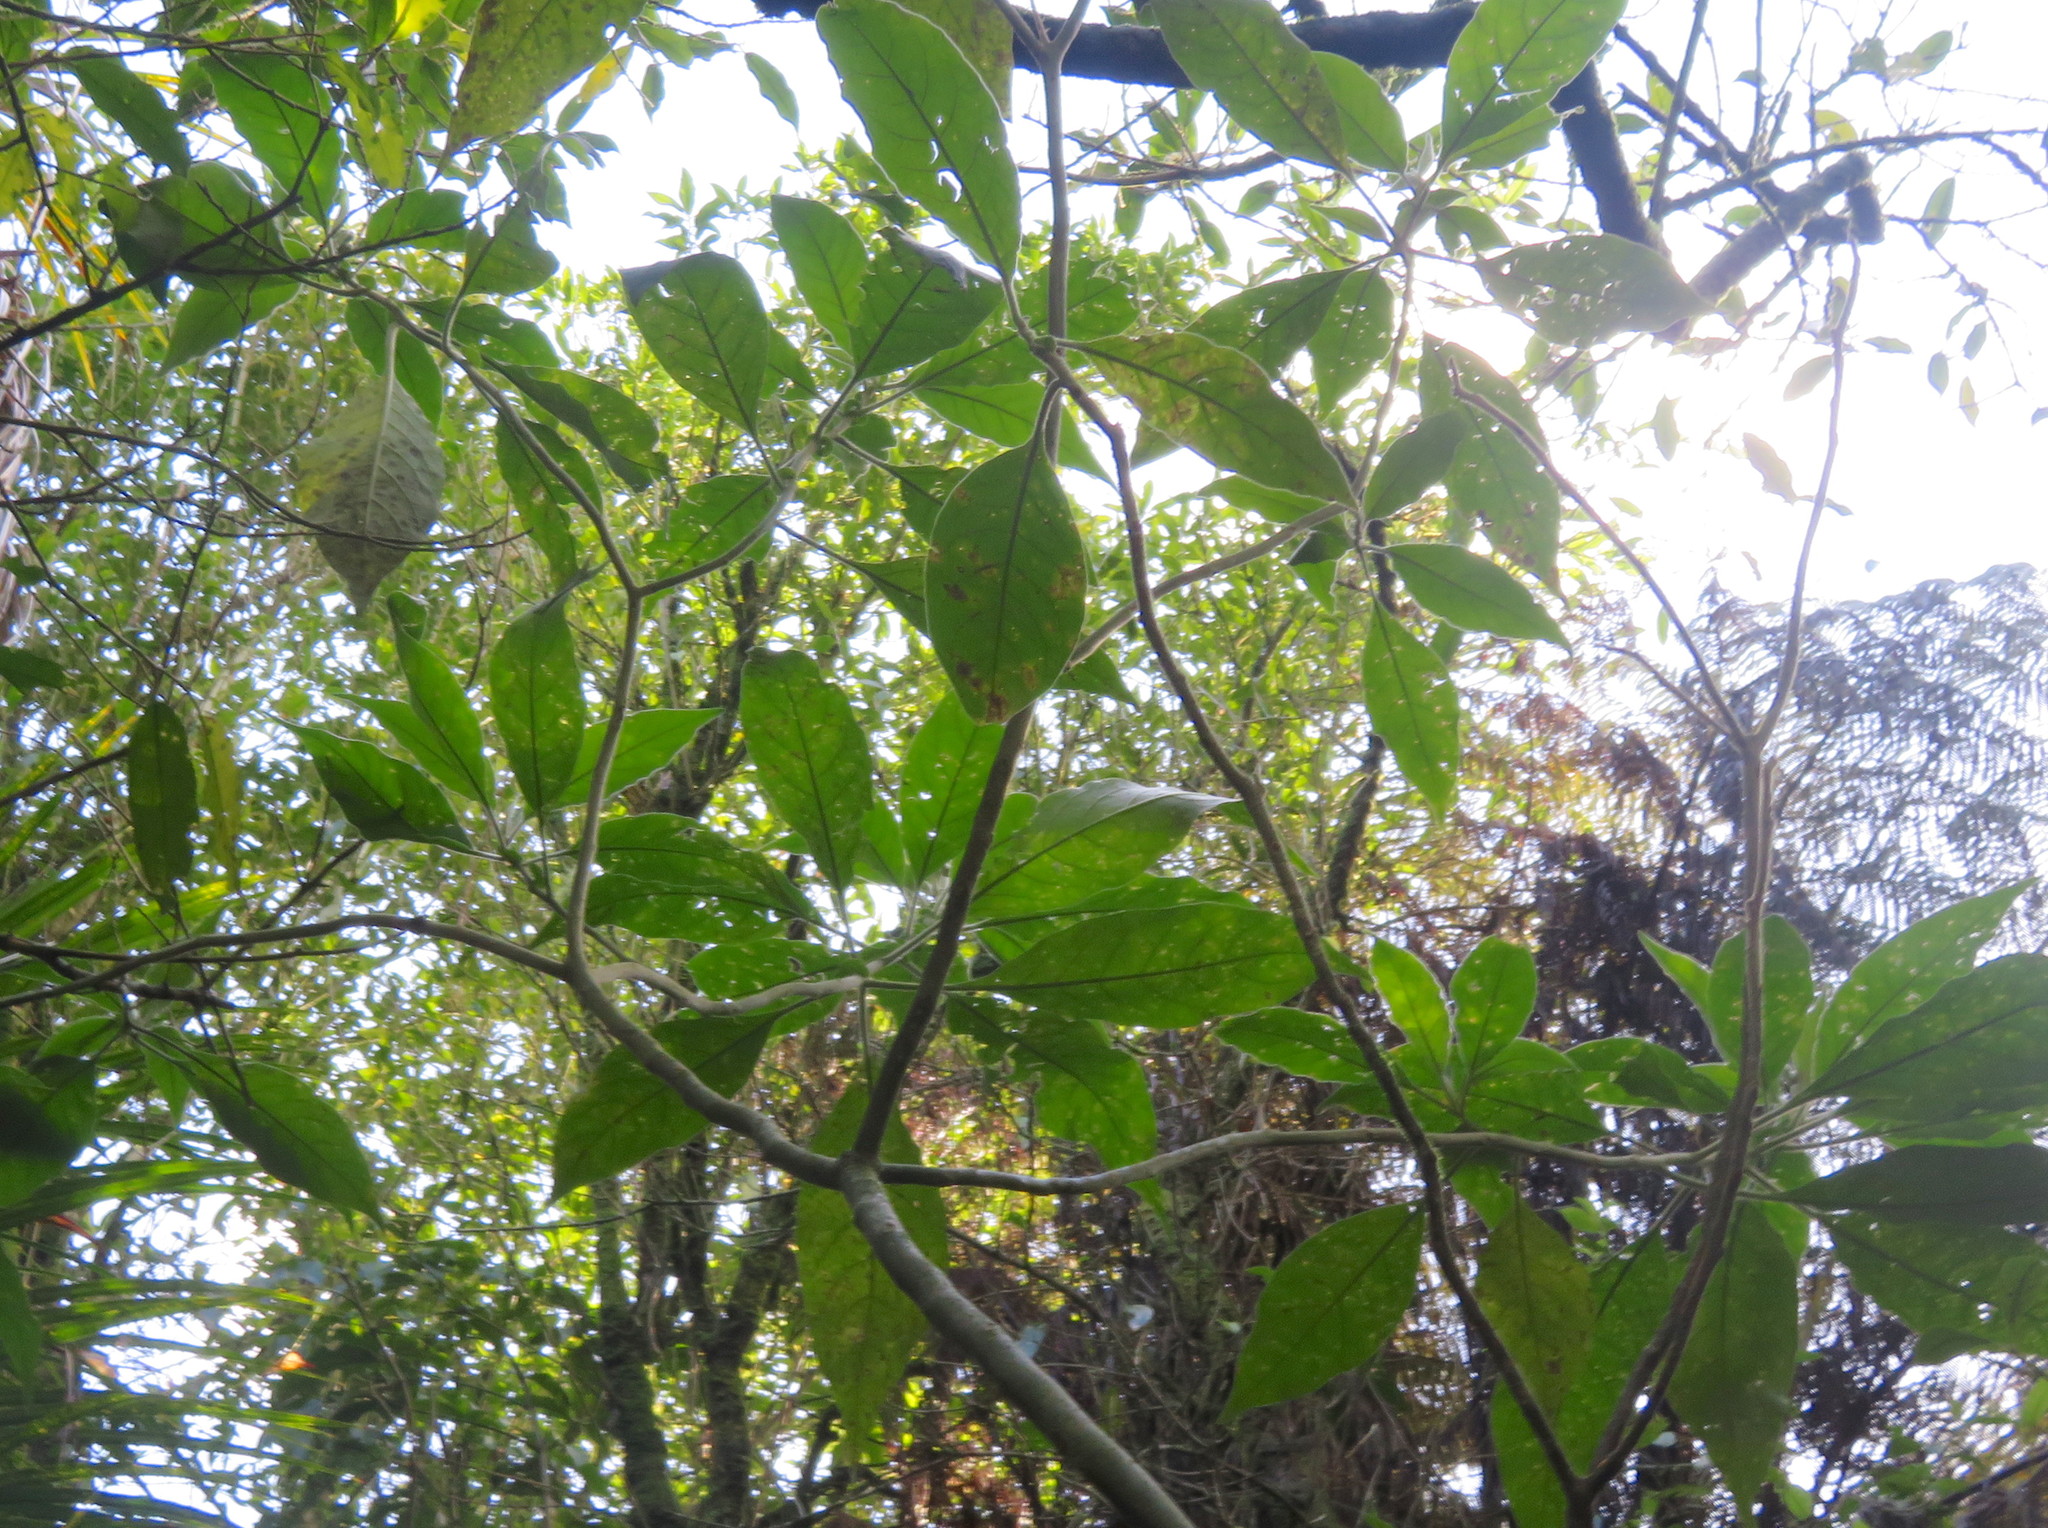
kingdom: Plantae
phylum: Tracheophyta
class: Magnoliopsida
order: Solanales
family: Solanaceae
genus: Solanum
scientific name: Solanum mauritianum
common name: Earleaf nightshade
